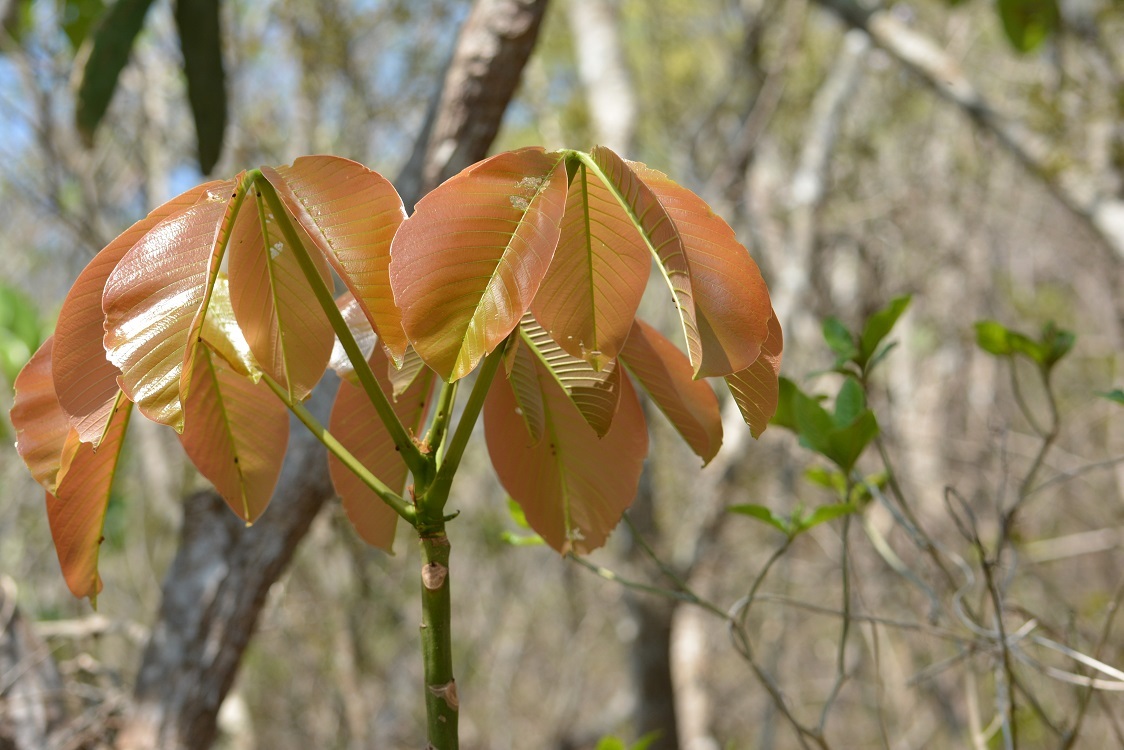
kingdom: Plantae
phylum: Tracheophyta
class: Magnoliopsida
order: Malvales
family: Malvaceae
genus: Pseudobombax
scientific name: Pseudobombax ellipticum
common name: Shaving-brush-tree
